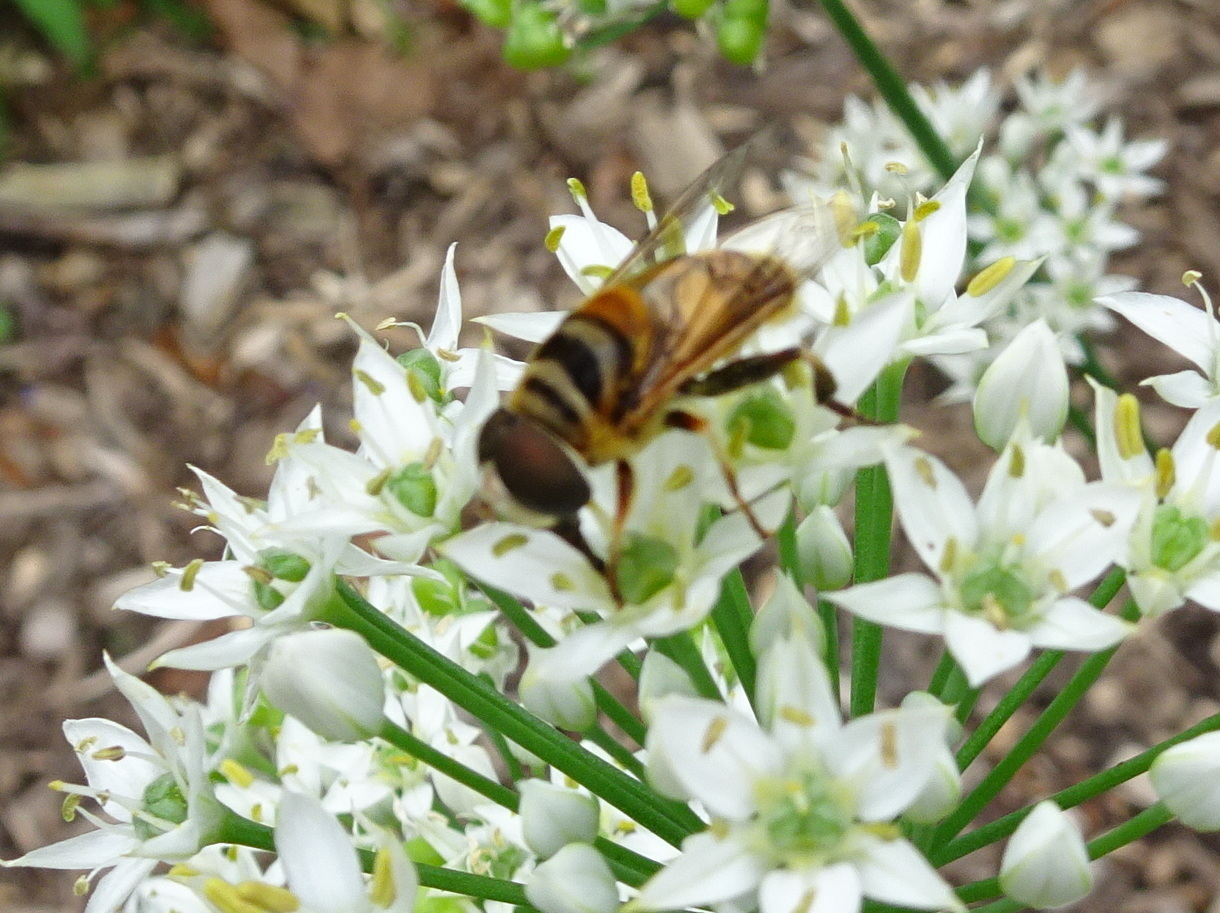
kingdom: Animalia
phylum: Arthropoda
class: Insecta
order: Diptera
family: Syrphidae
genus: Palpada
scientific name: Palpada vinetorum
